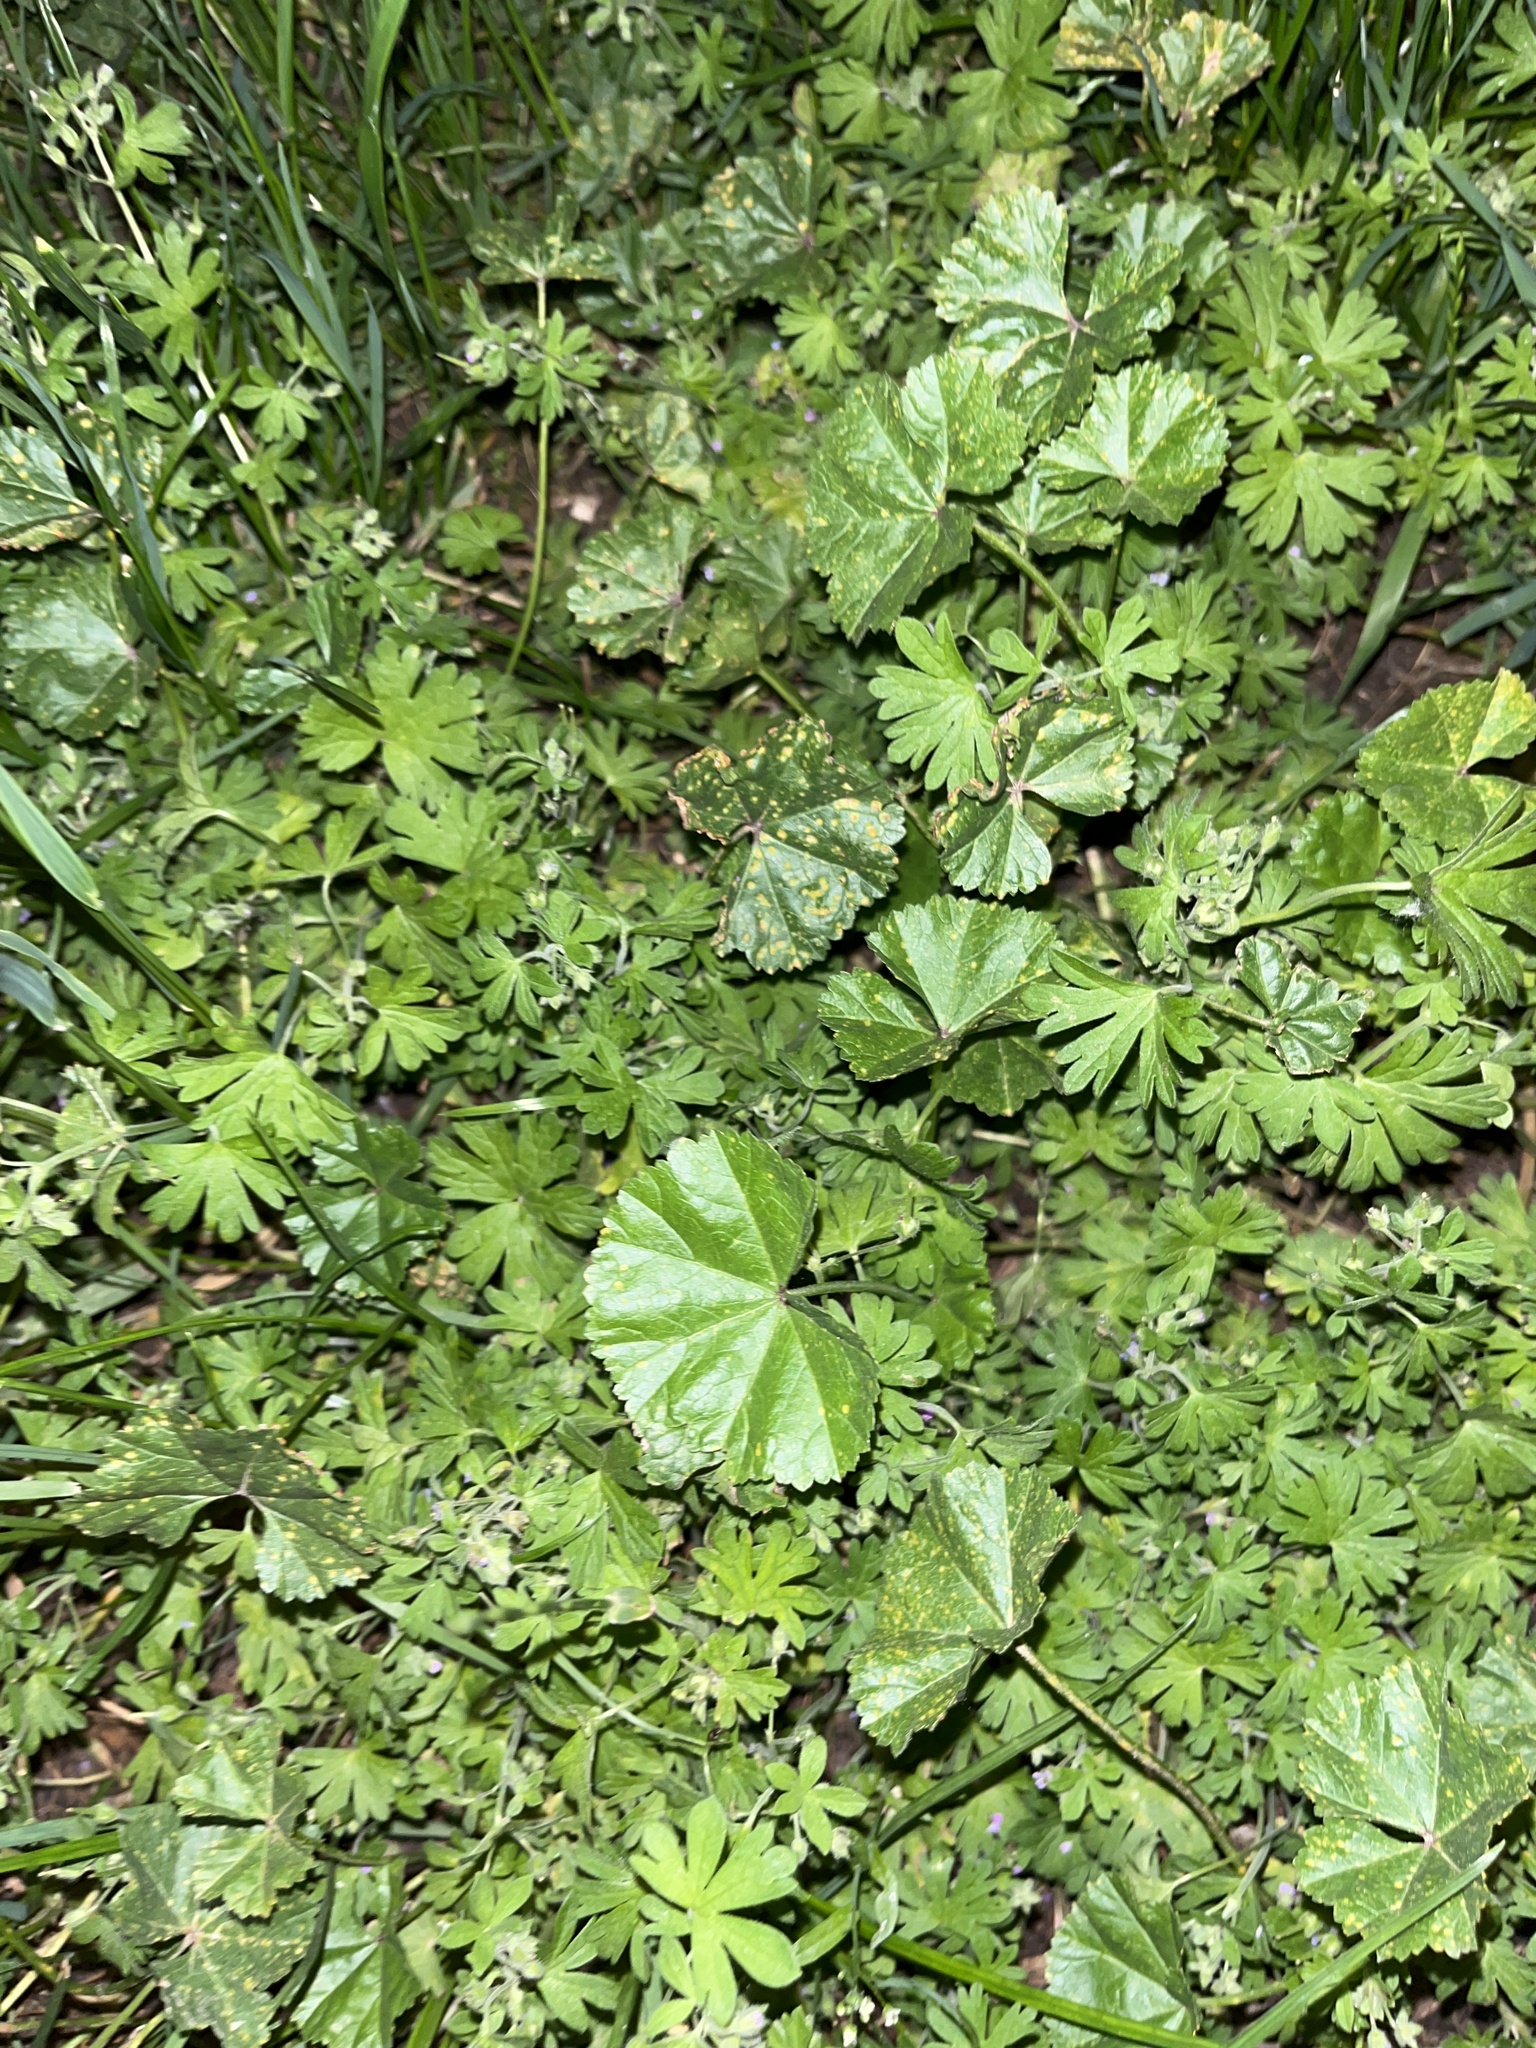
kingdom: Plantae
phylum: Tracheophyta
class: Magnoliopsida
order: Malvales
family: Malvaceae
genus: Malva
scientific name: Malva neglecta
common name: Common mallow
